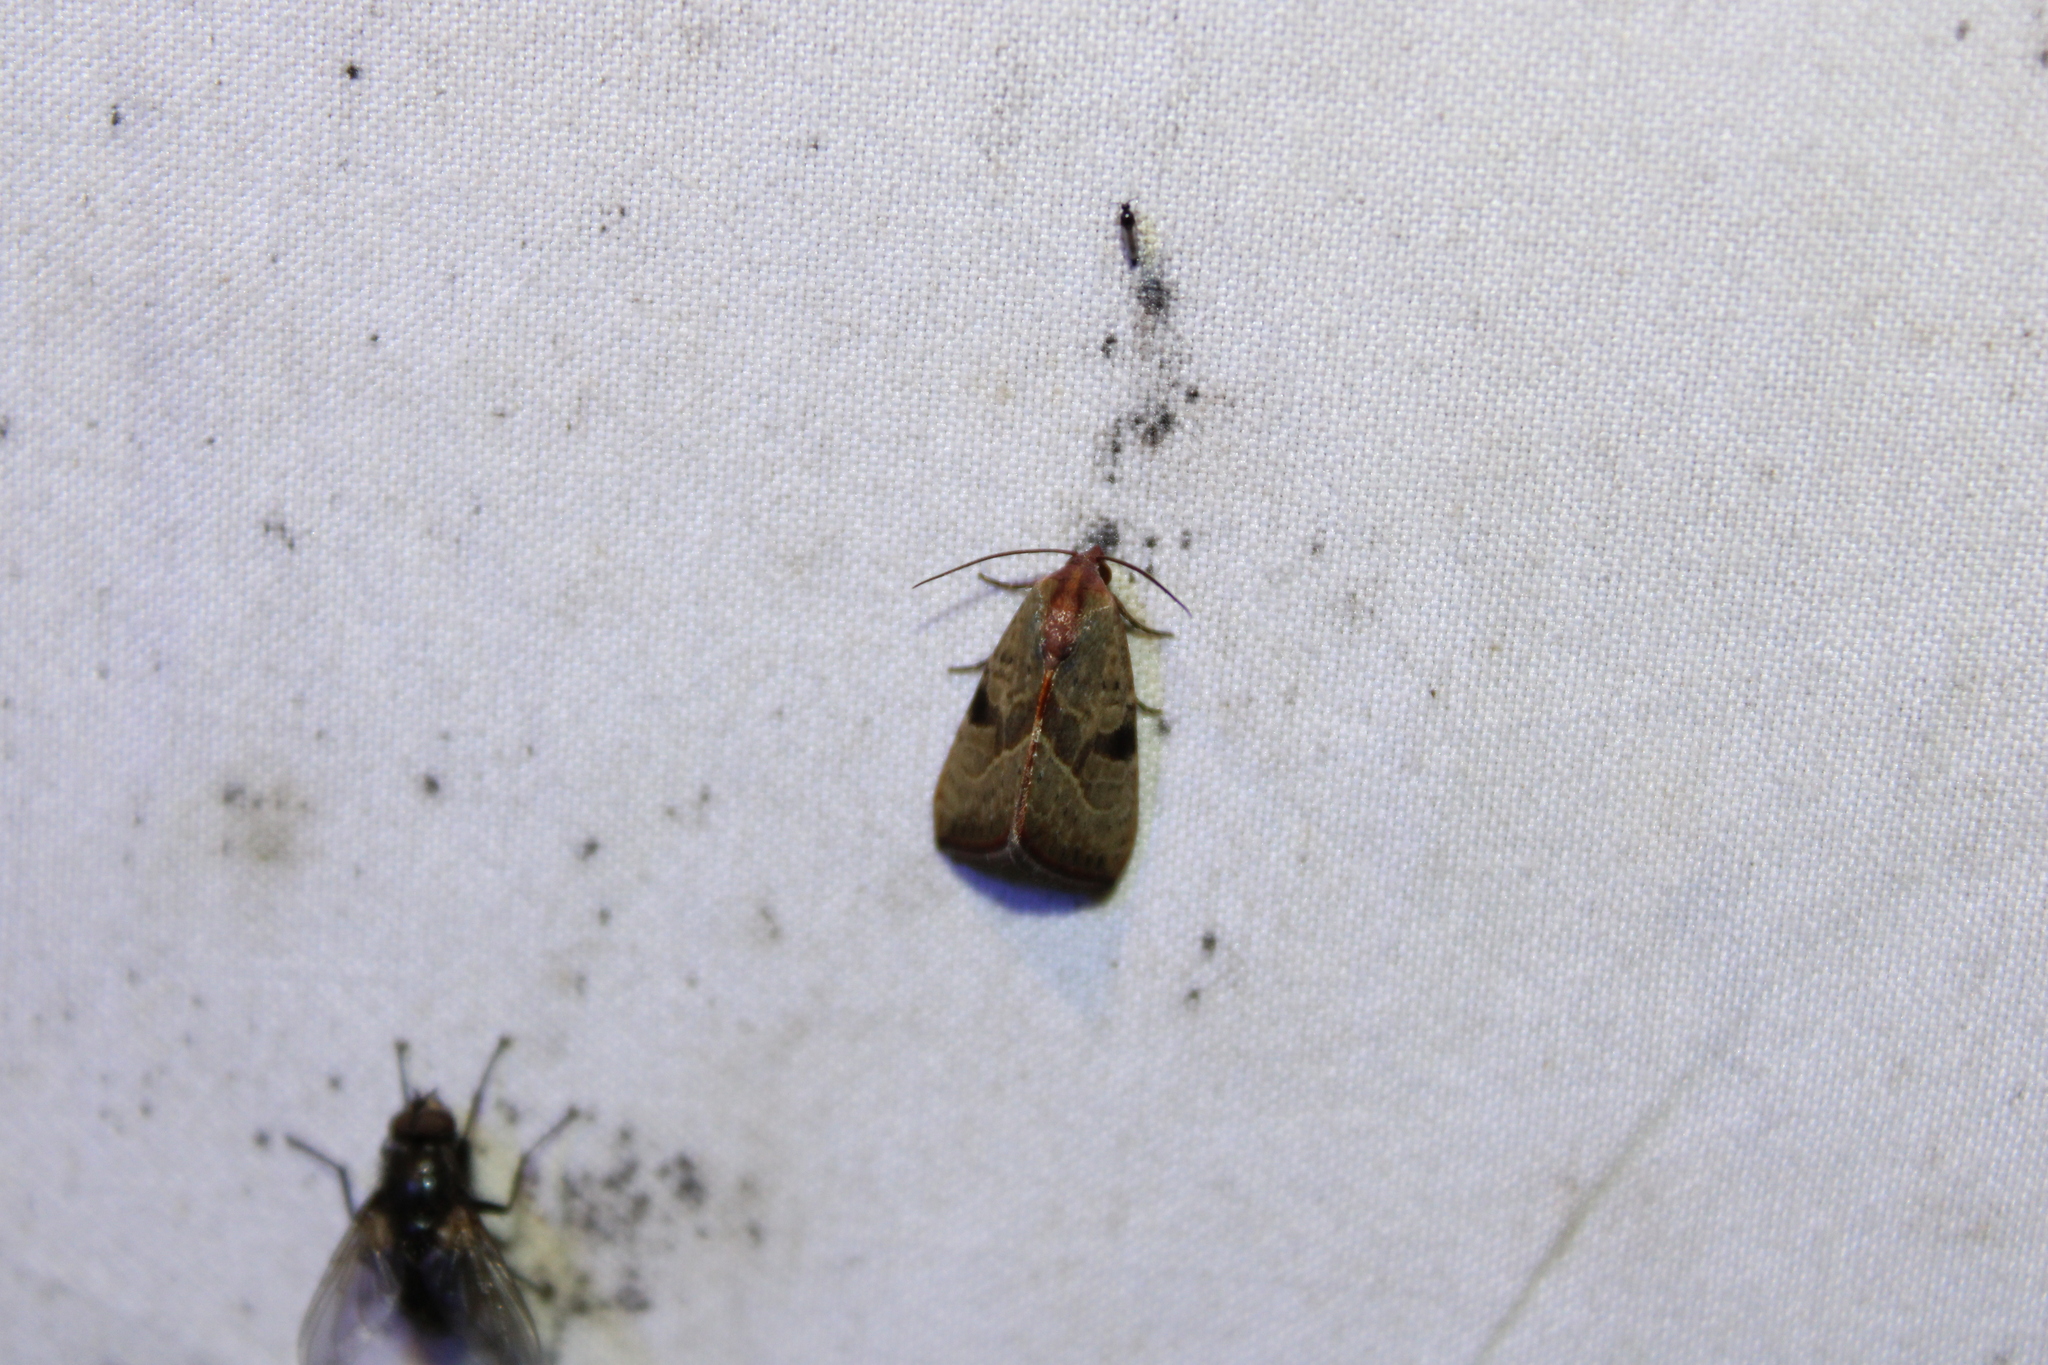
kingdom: Animalia
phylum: Arthropoda
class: Insecta
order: Lepidoptera
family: Noctuidae
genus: Galgula
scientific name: Galgula partita
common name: Wedgeling
